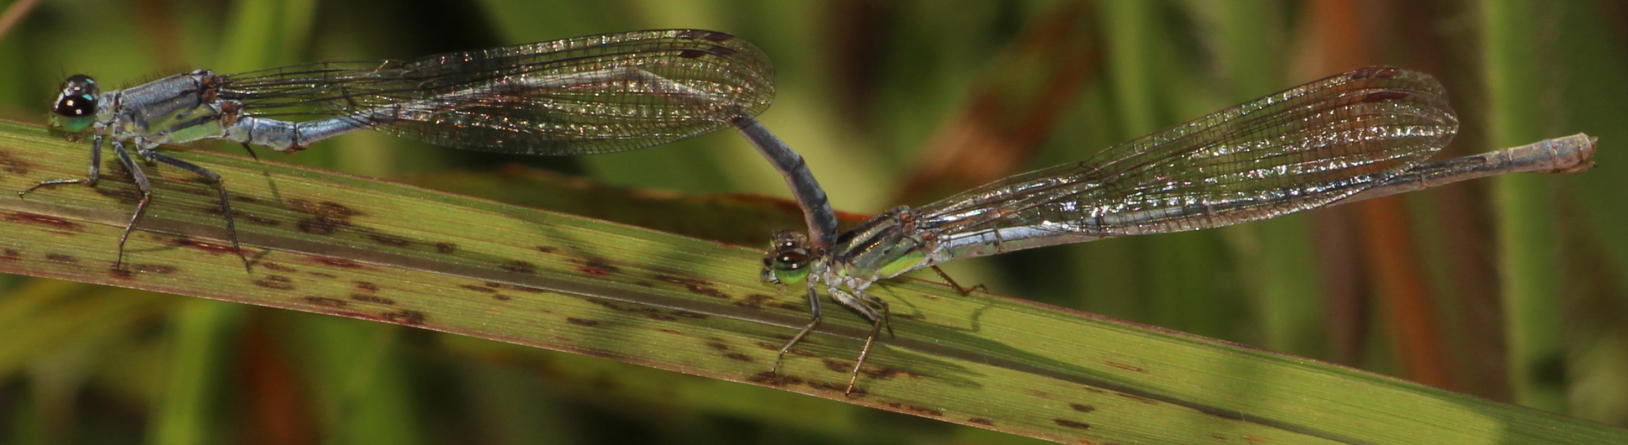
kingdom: Animalia
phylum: Arthropoda
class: Insecta
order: Odonata
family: Coenagrionidae
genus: Pseudagrion
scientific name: Pseudagrion spernatum
